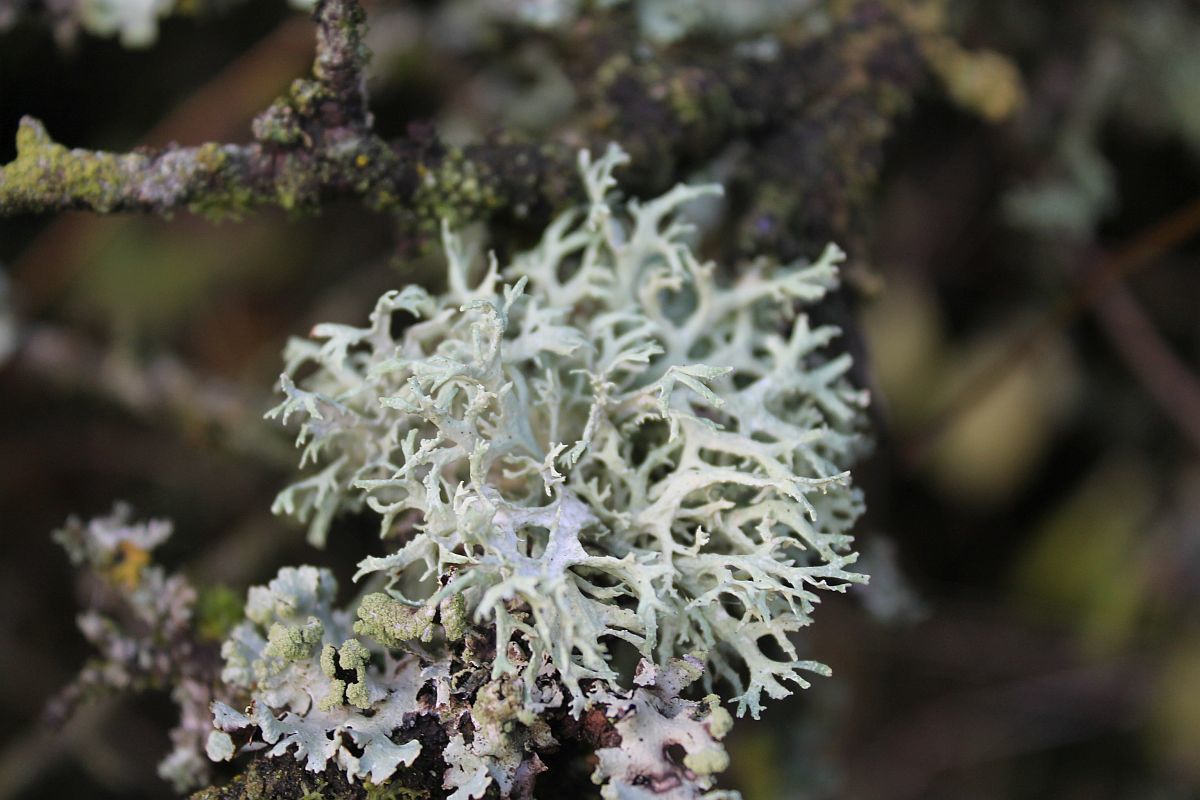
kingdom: Fungi
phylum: Ascomycota
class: Lecanoromycetes
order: Lecanorales
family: Parmeliaceae
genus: Evernia
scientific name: Evernia prunastri
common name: Oak moss
